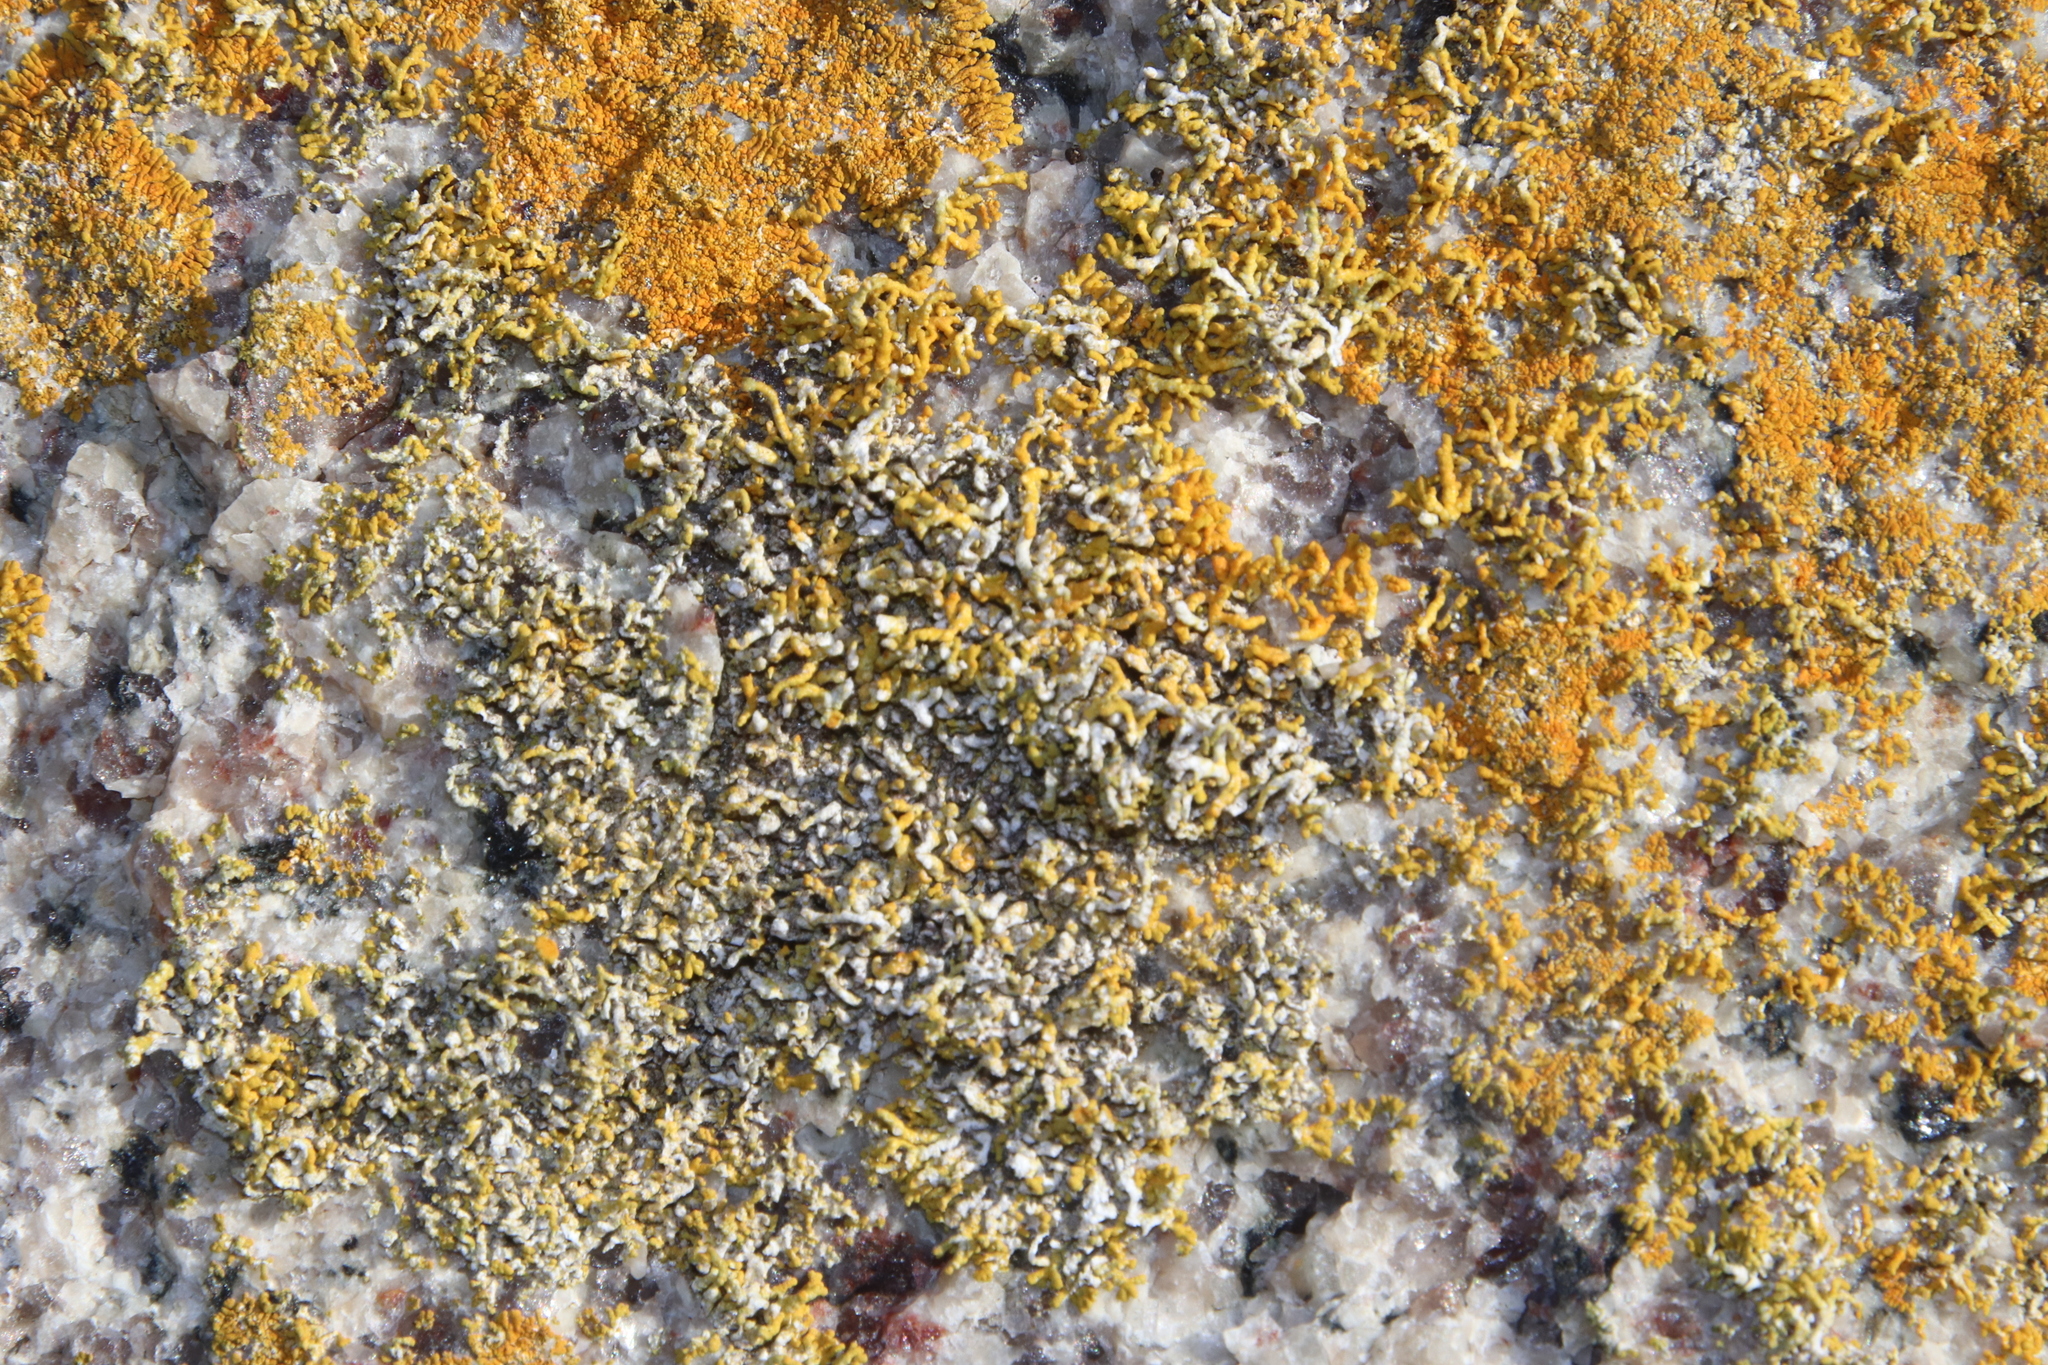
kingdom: Fungi
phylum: Ascomycota
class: Lecanoromycetes
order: Teloschistales
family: Teloschistaceae
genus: Dufourea
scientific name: Dufourea capensis
